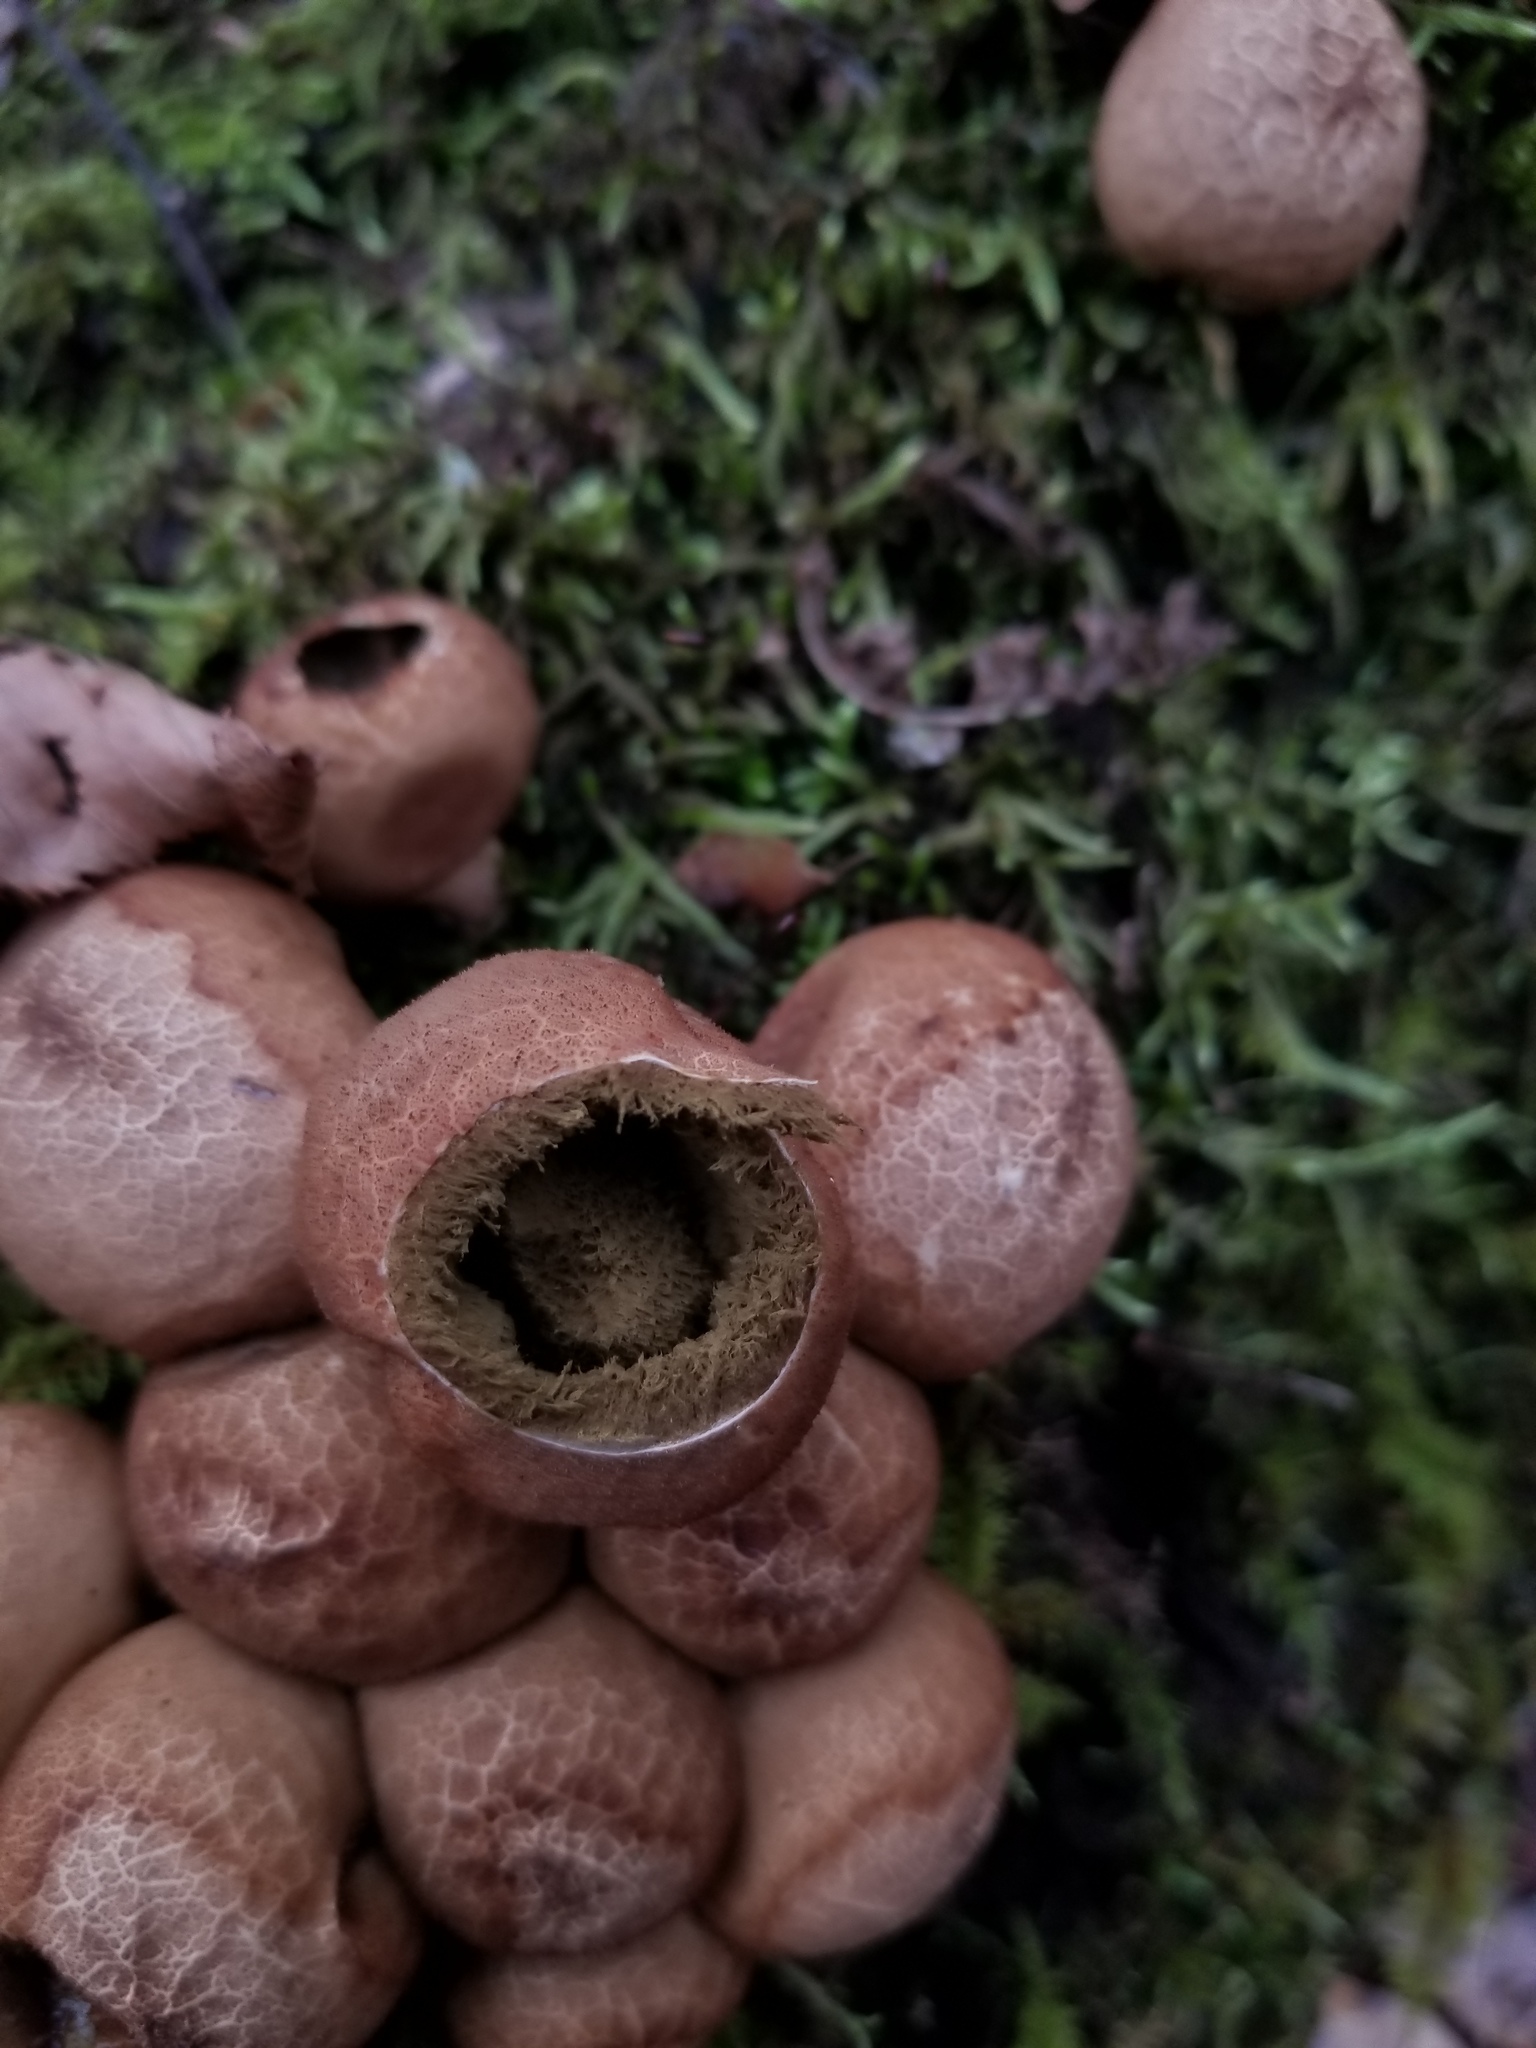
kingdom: Fungi
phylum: Basidiomycota
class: Agaricomycetes
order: Agaricales
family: Lycoperdaceae
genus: Apioperdon
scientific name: Apioperdon pyriforme
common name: Pear-shaped puffball
